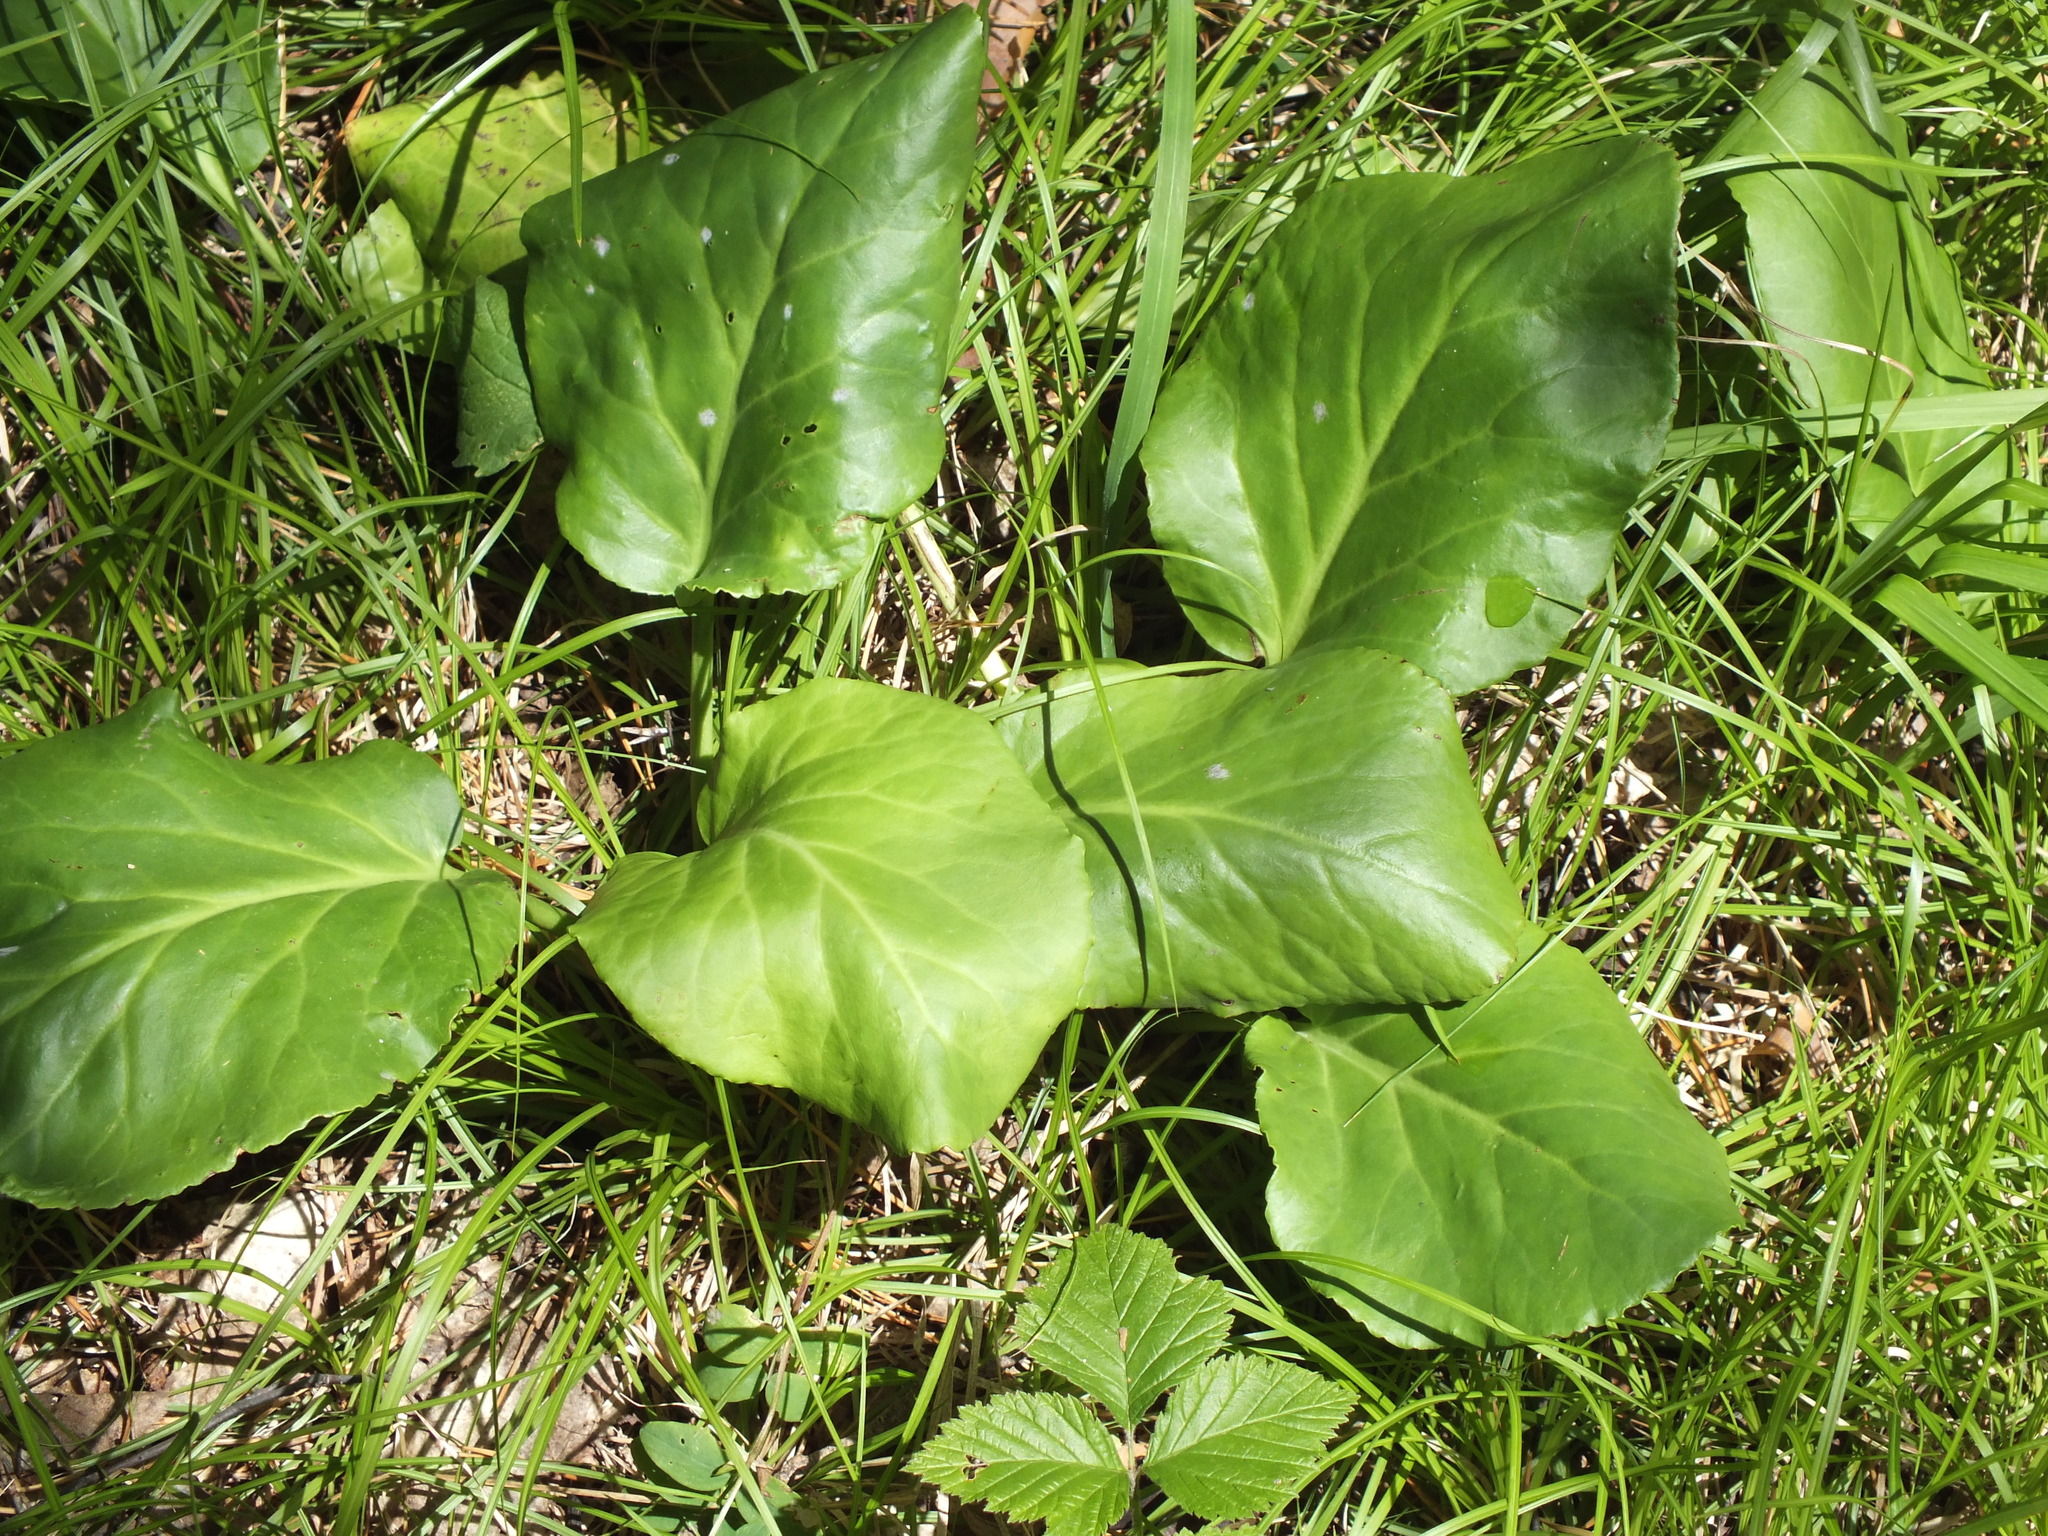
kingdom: Plantae
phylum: Tracheophyta
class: Magnoliopsida
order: Saxifragales
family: Saxifragaceae
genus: Bergenia
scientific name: Bergenia crassifolia
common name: Elephant-ears
